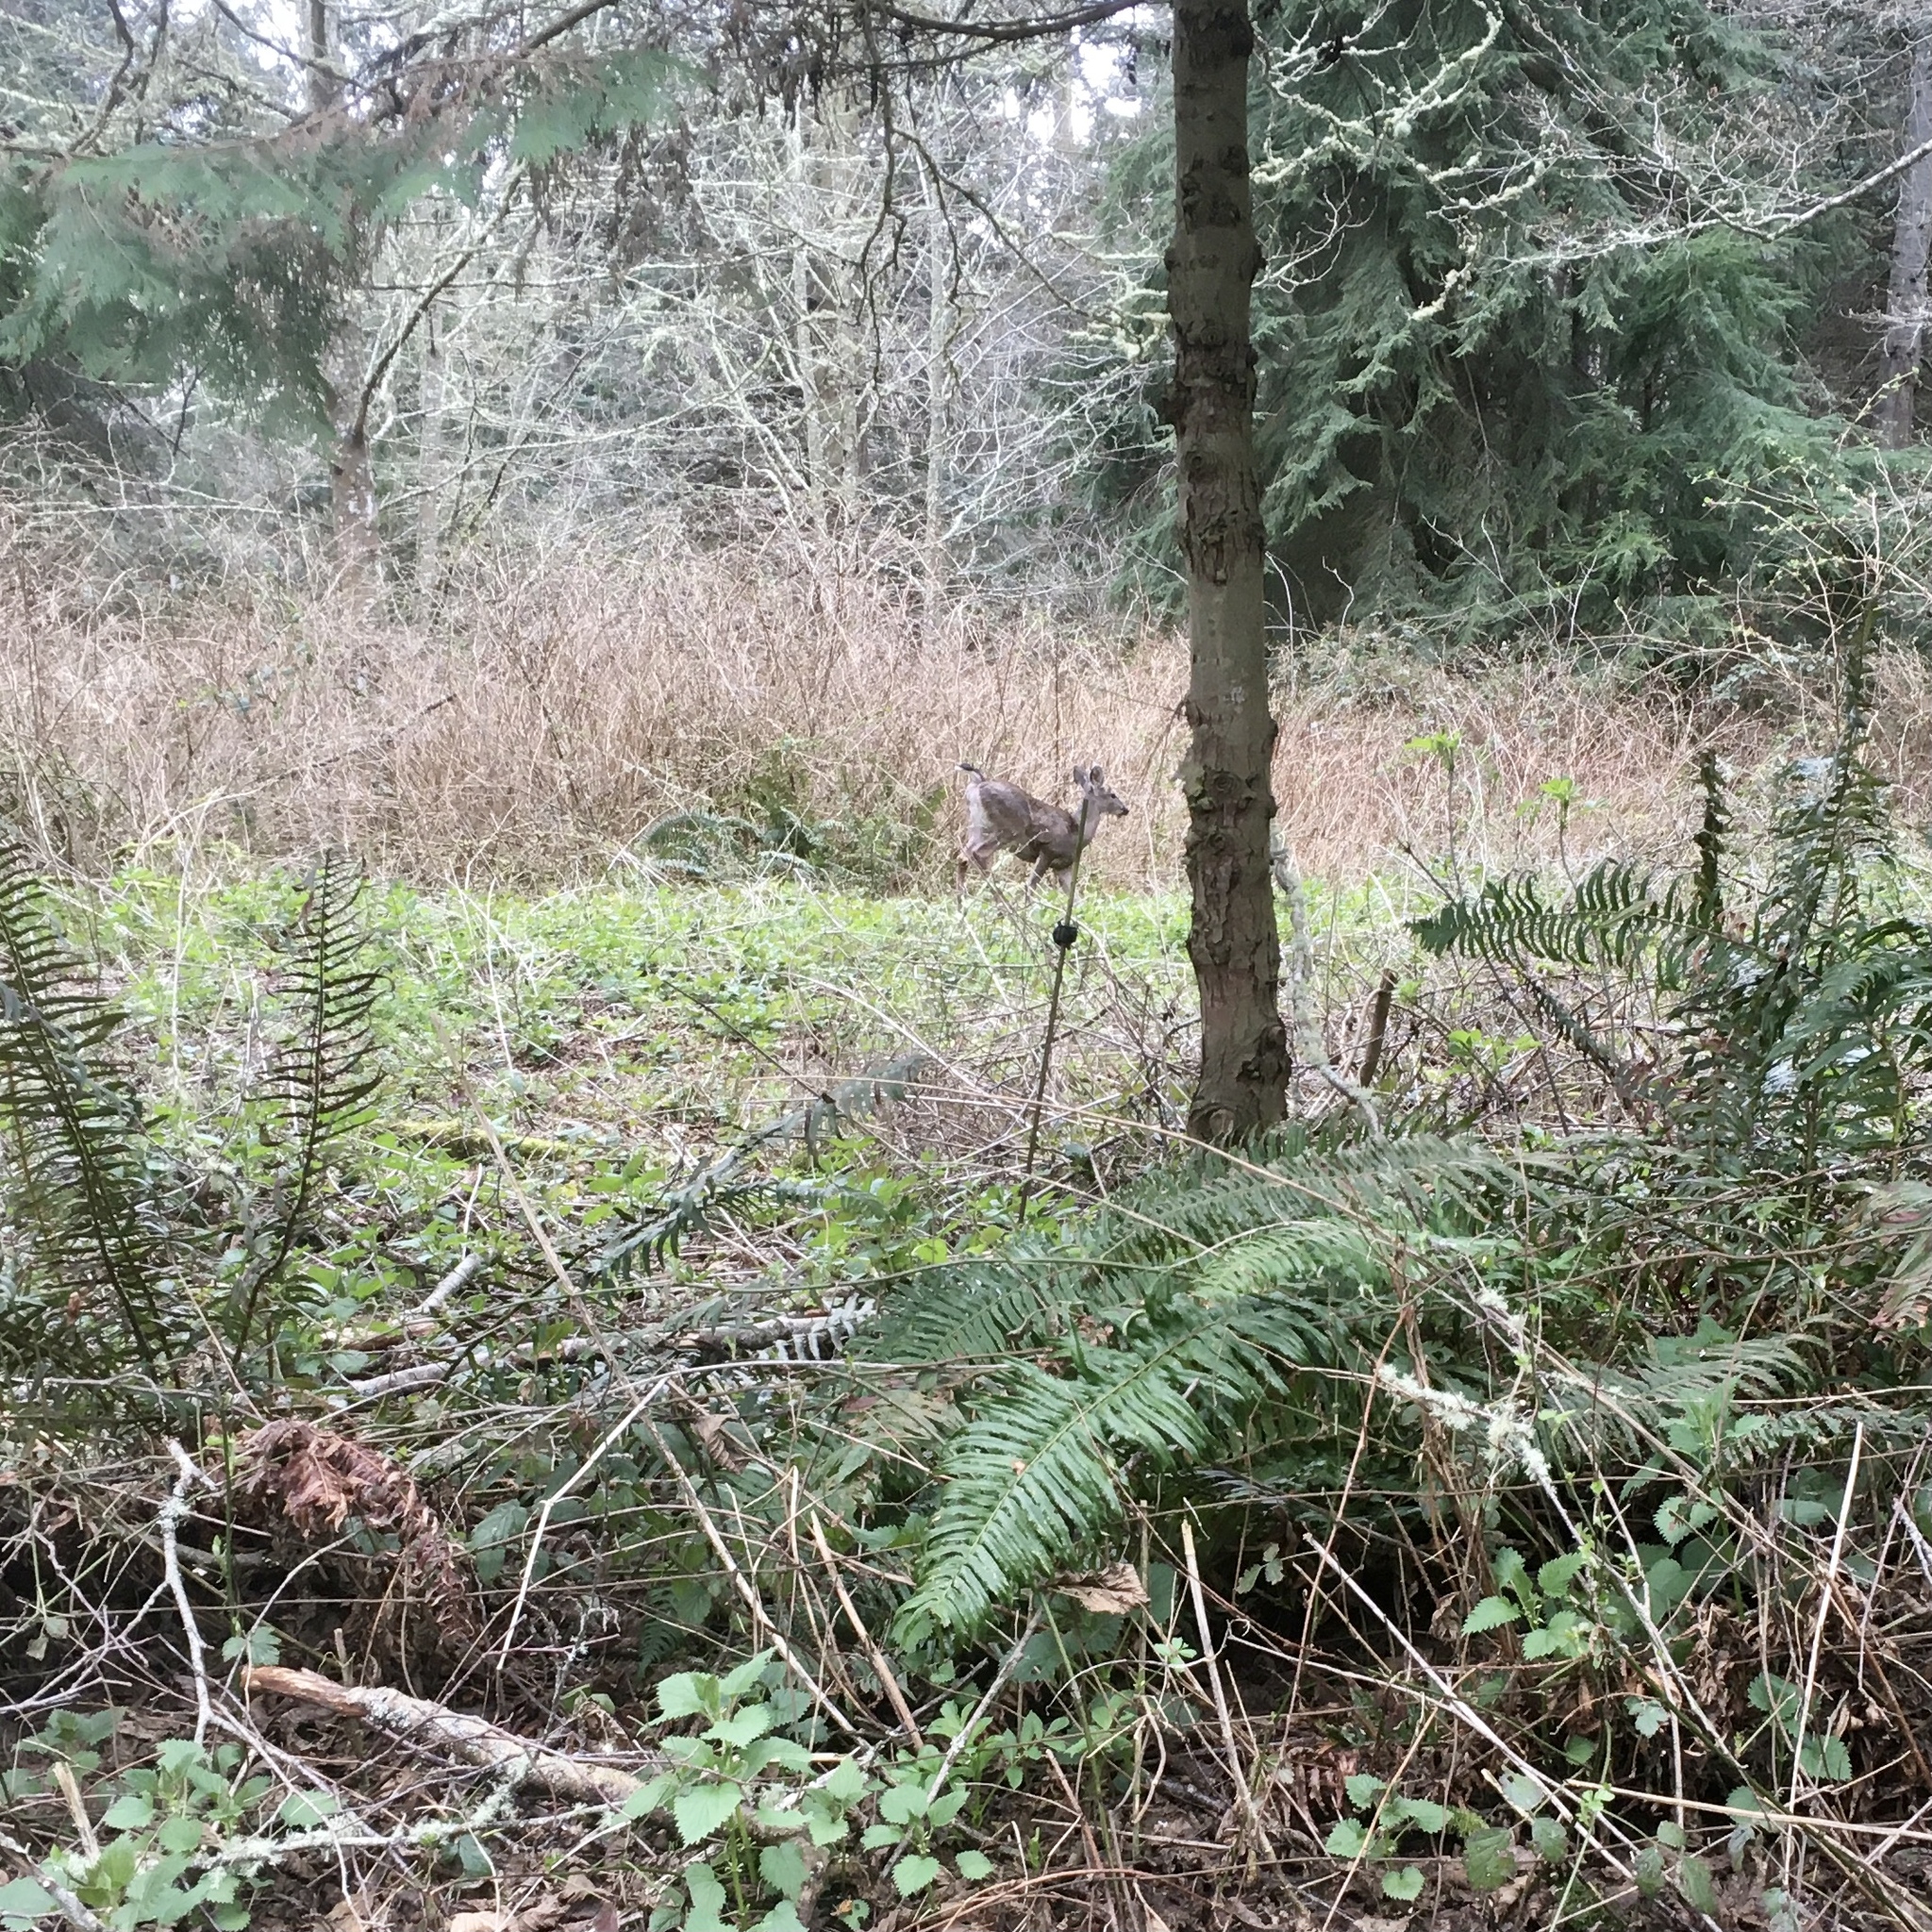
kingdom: Animalia
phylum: Chordata
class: Mammalia
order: Artiodactyla
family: Cervidae
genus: Odocoileus
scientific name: Odocoileus hemionus
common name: Mule deer
